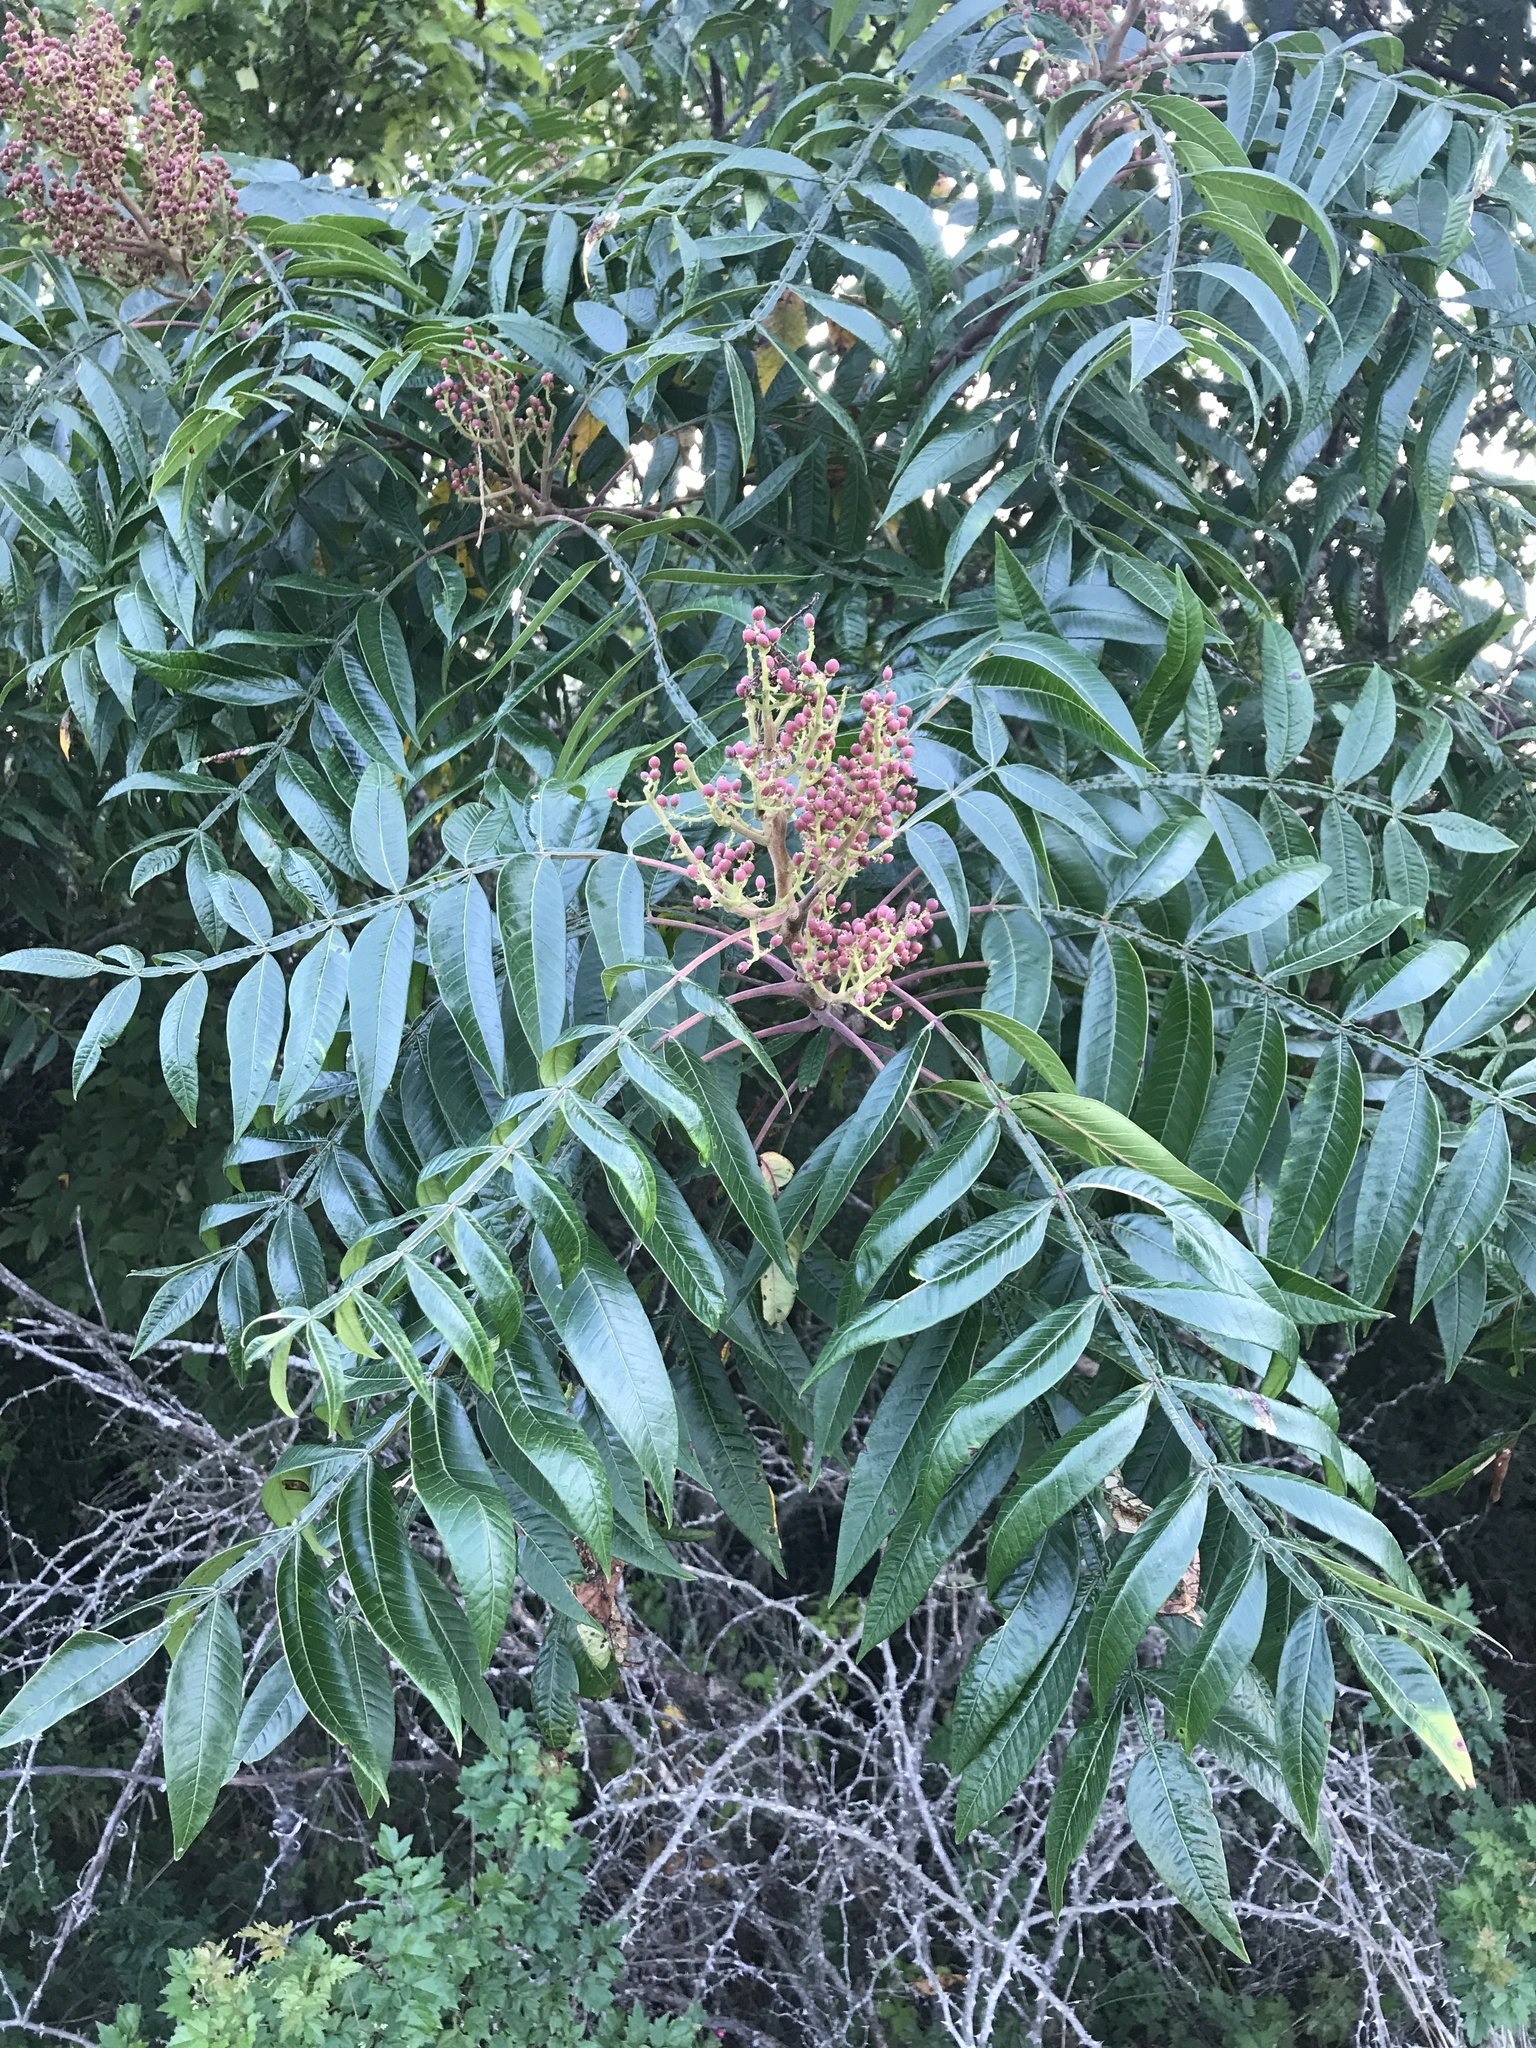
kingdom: Plantae
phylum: Tracheophyta
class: Magnoliopsida
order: Sapindales
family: Anacardiaceae
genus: Rhus
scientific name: Rhus copallina
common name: Shining sumac
